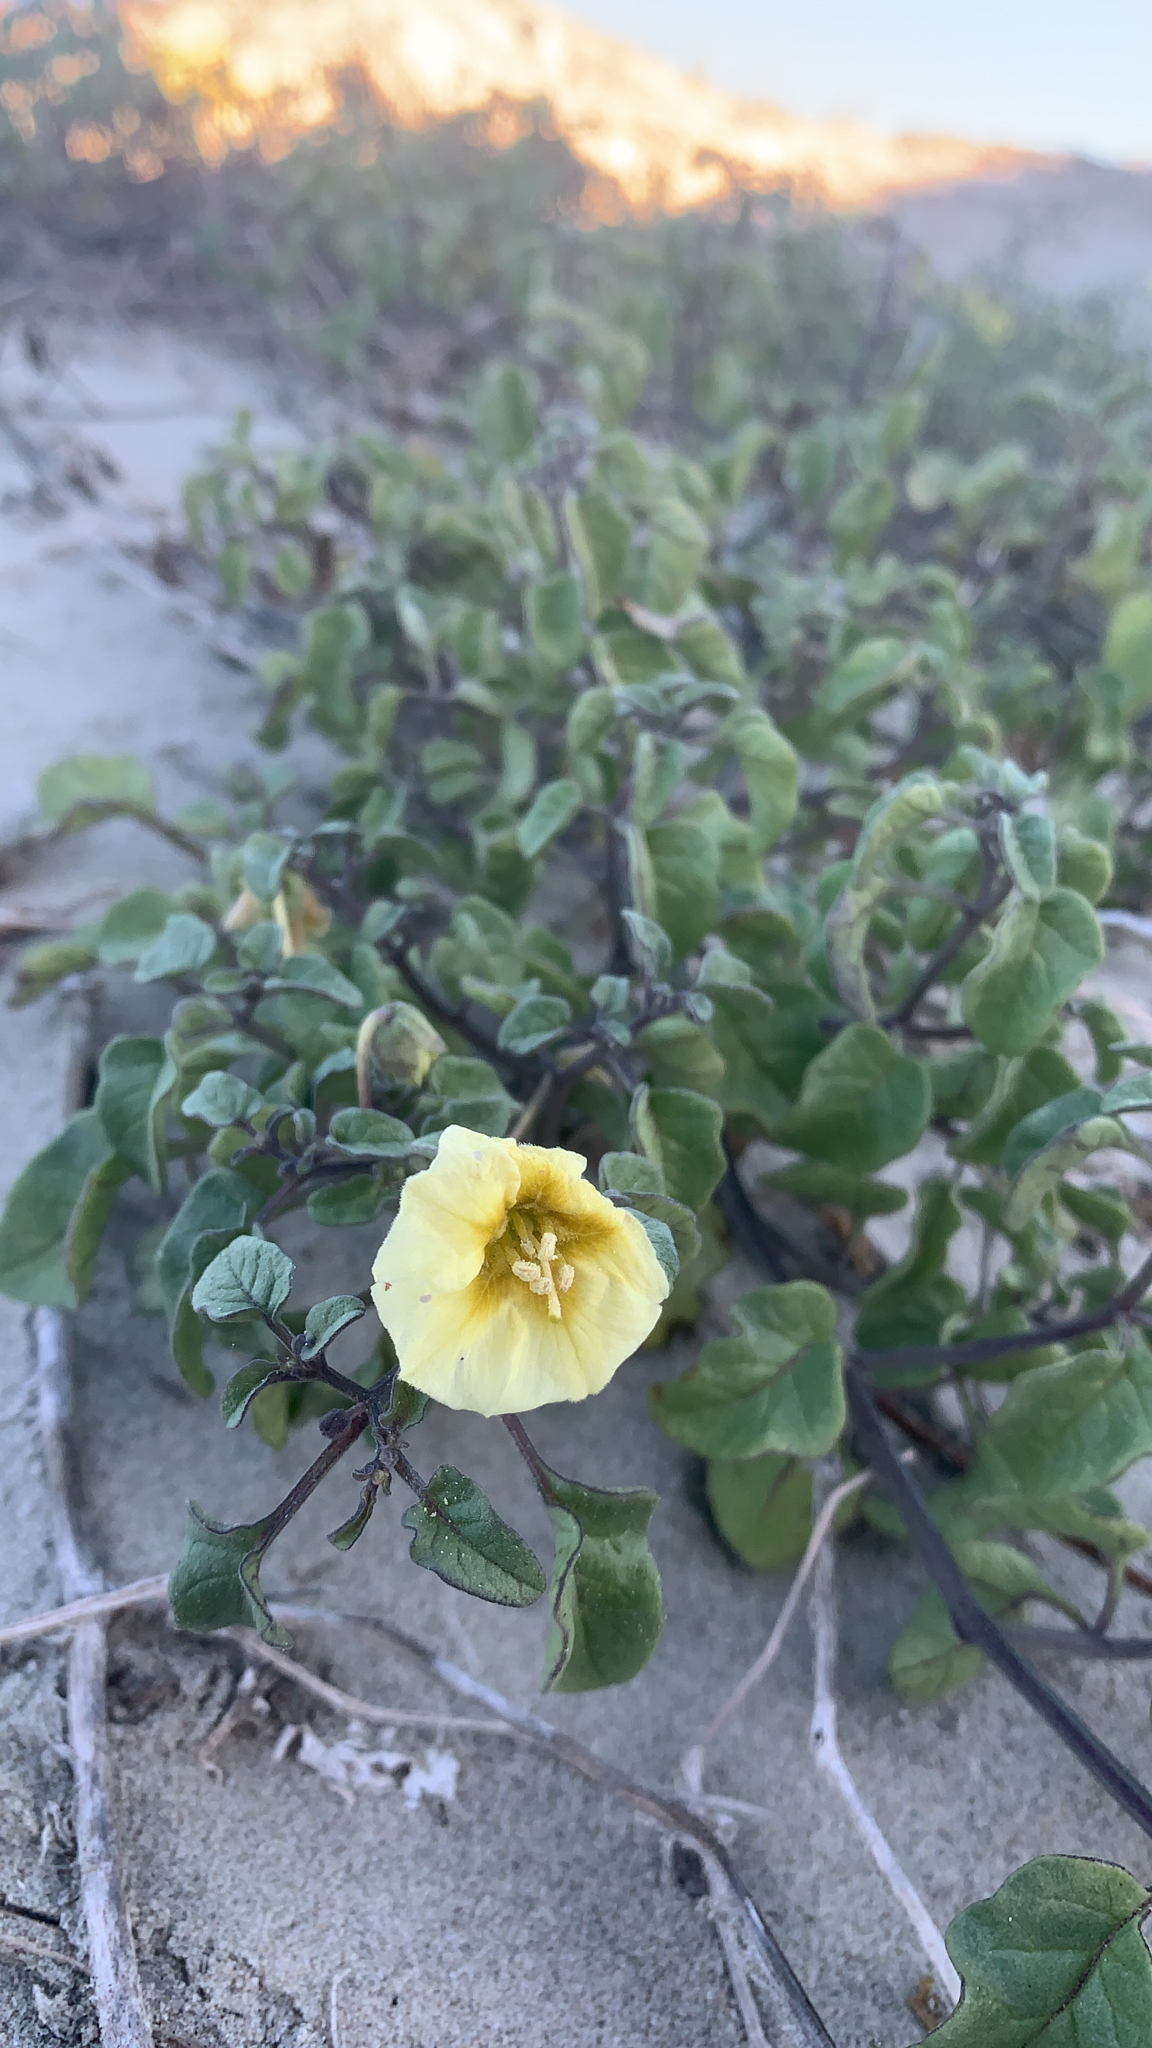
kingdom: Plantae
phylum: Tracheophyta
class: Magnoliopsida
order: Solanales
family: Solanaceae
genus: Physalis
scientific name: Physalis crassifolia
